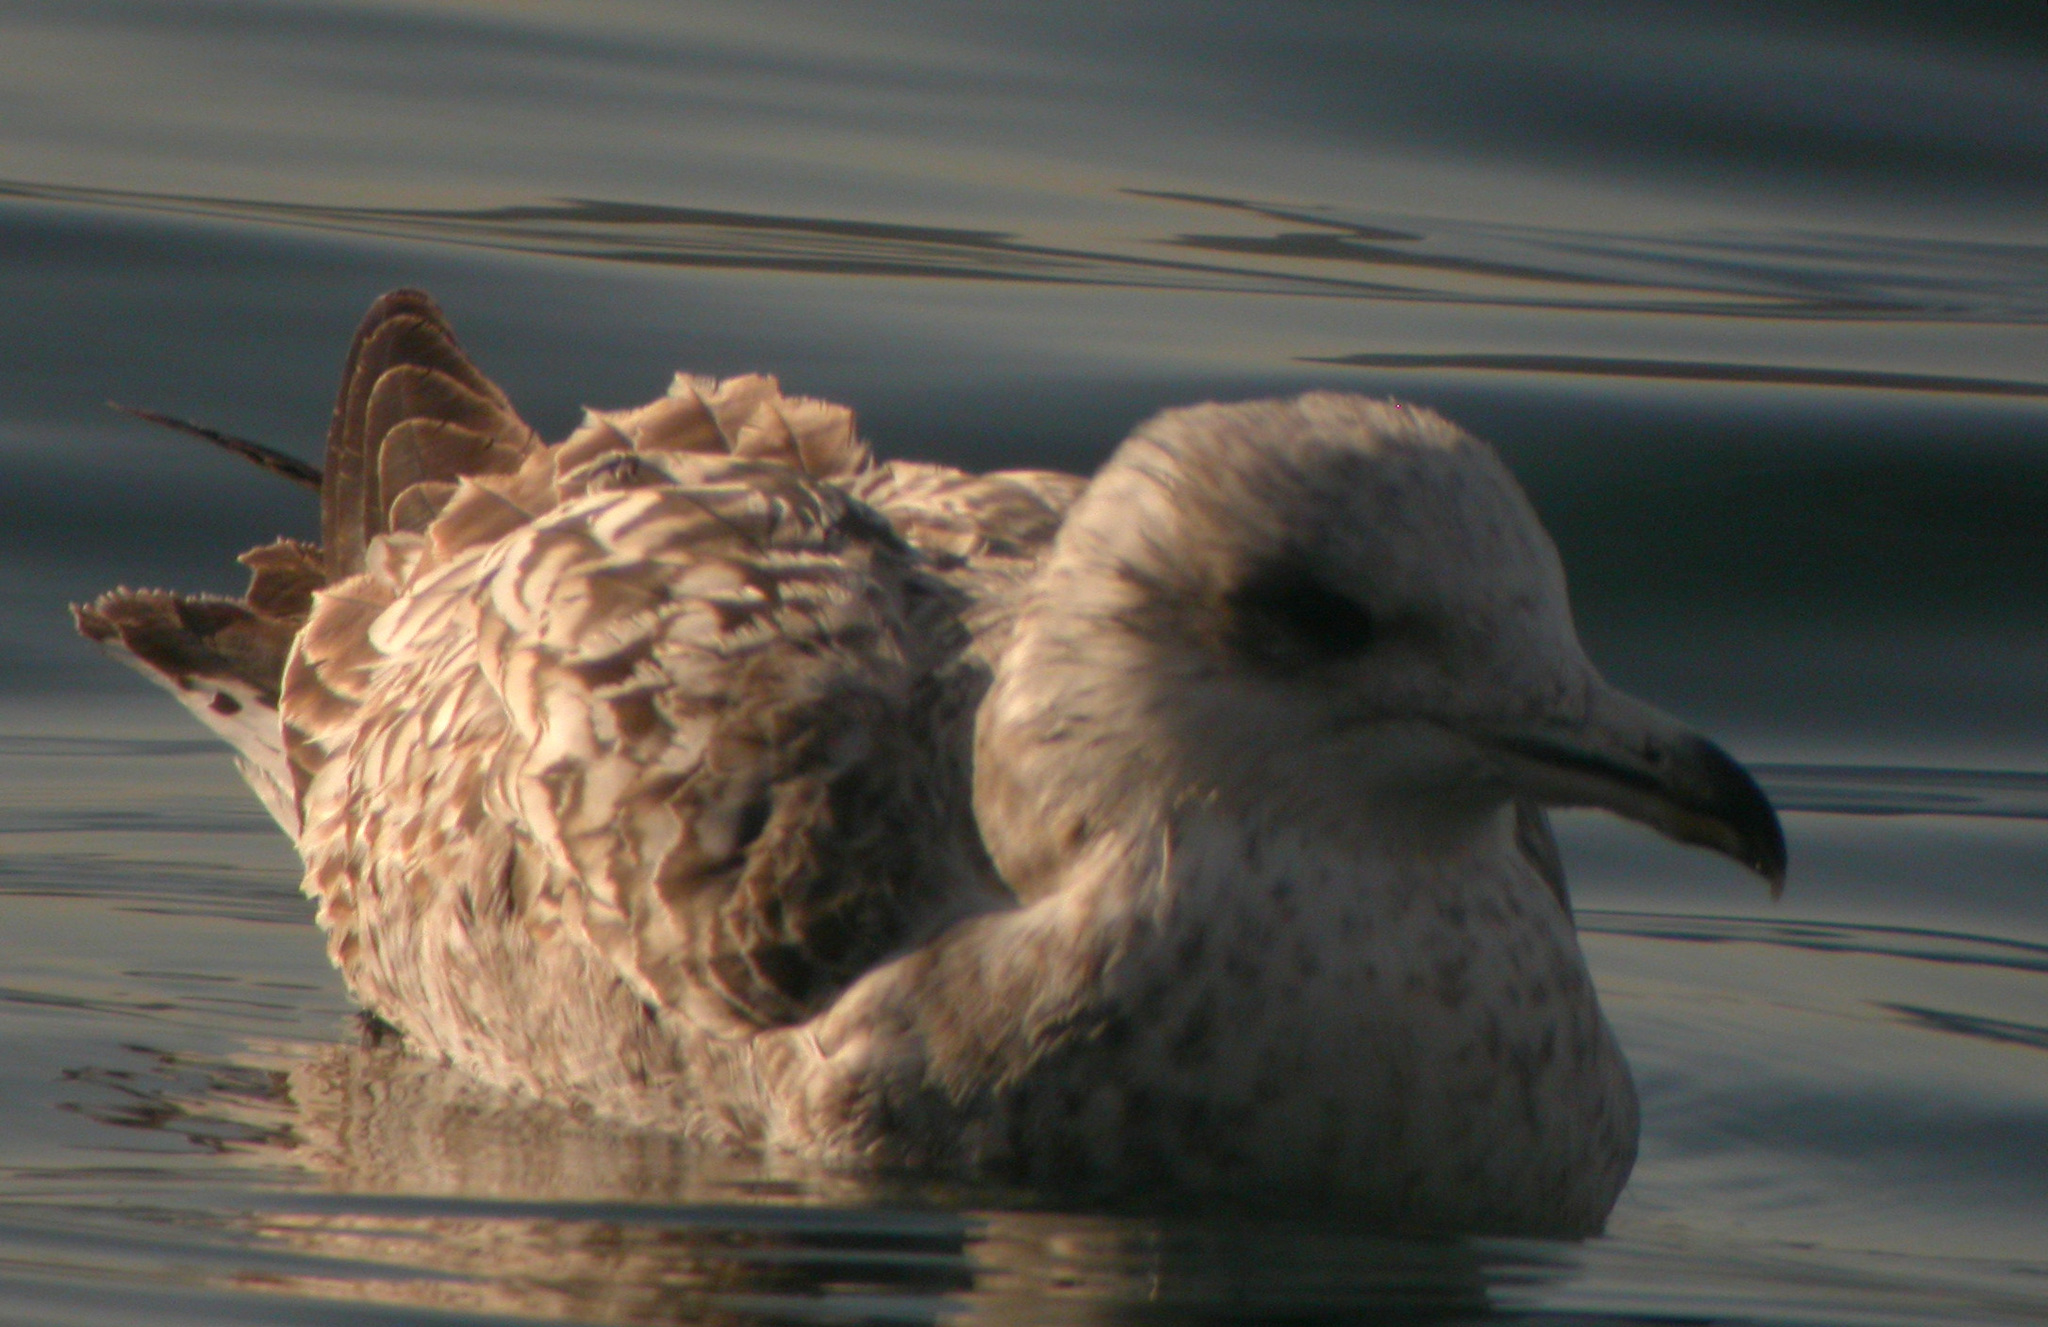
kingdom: Animalia
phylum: Chordata
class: Aves
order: Charadriiformes
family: Laridae
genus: Larus
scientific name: Larus argentatus
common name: Herring gull
